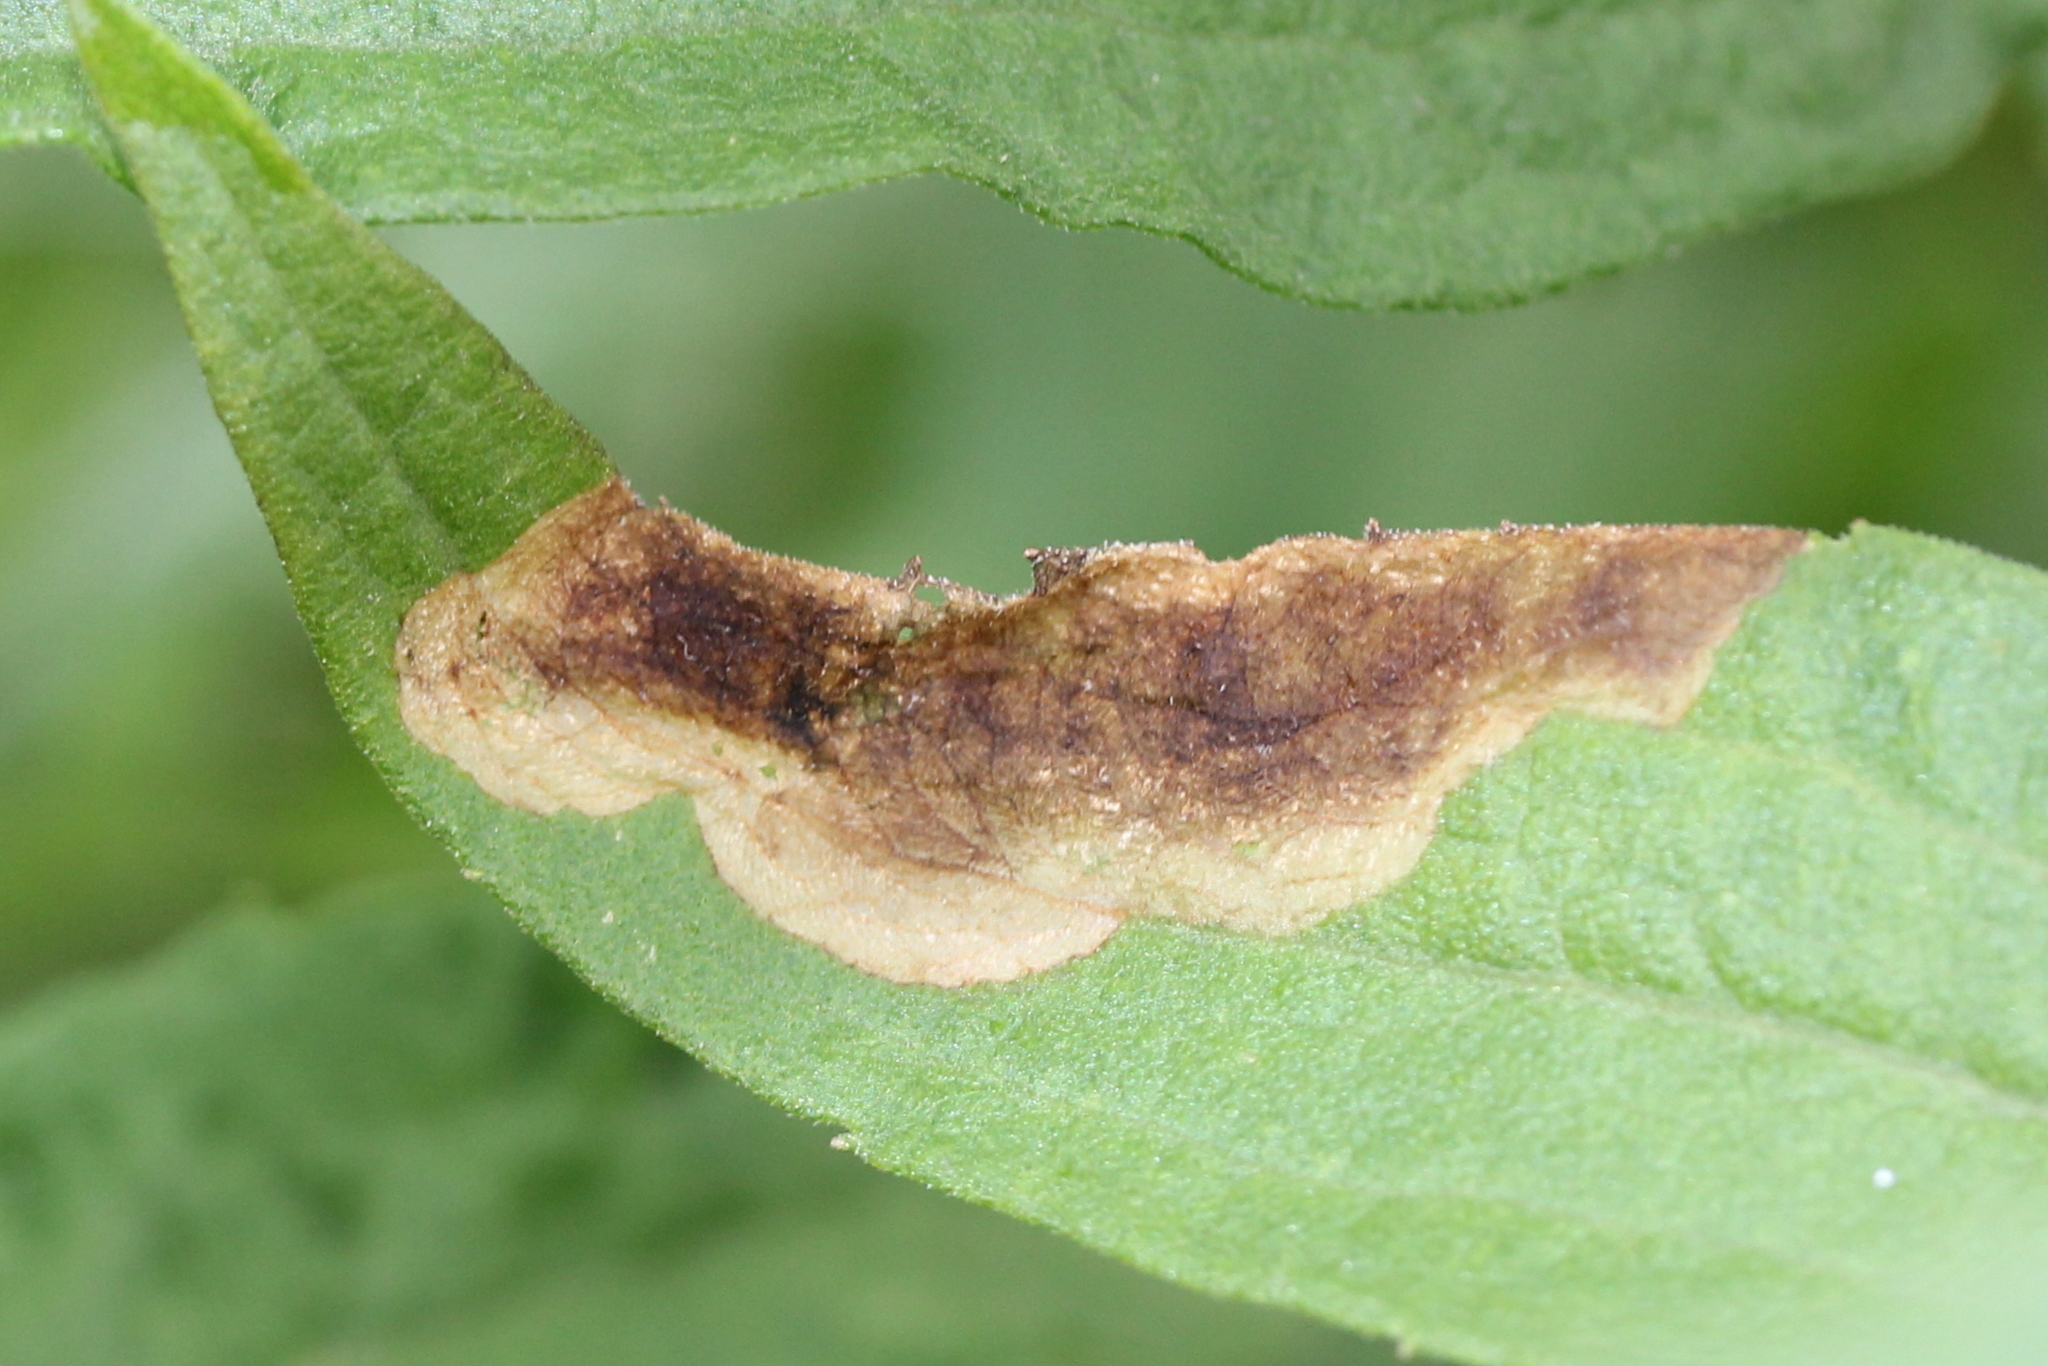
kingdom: Animalia
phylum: Arthropoda
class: Insecta
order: Diptera
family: Agromyzidae
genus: Nemorimyza
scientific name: Nemorimyza posticata
